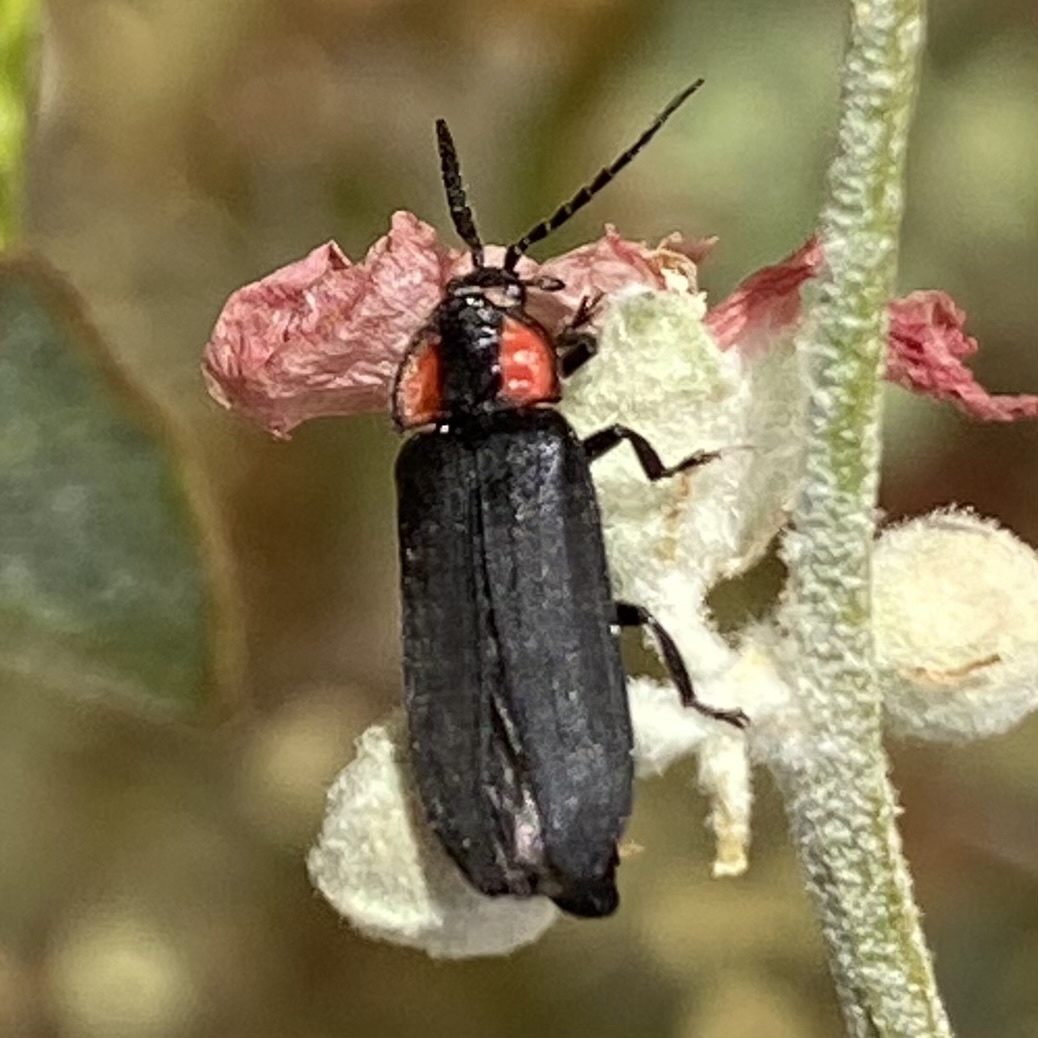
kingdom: Animalia
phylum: Arthropoda
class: Insecta
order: Coleoptera
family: Lampyridae
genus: Pyropyga
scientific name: Pyropyga nigricans
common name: Dark firefly
